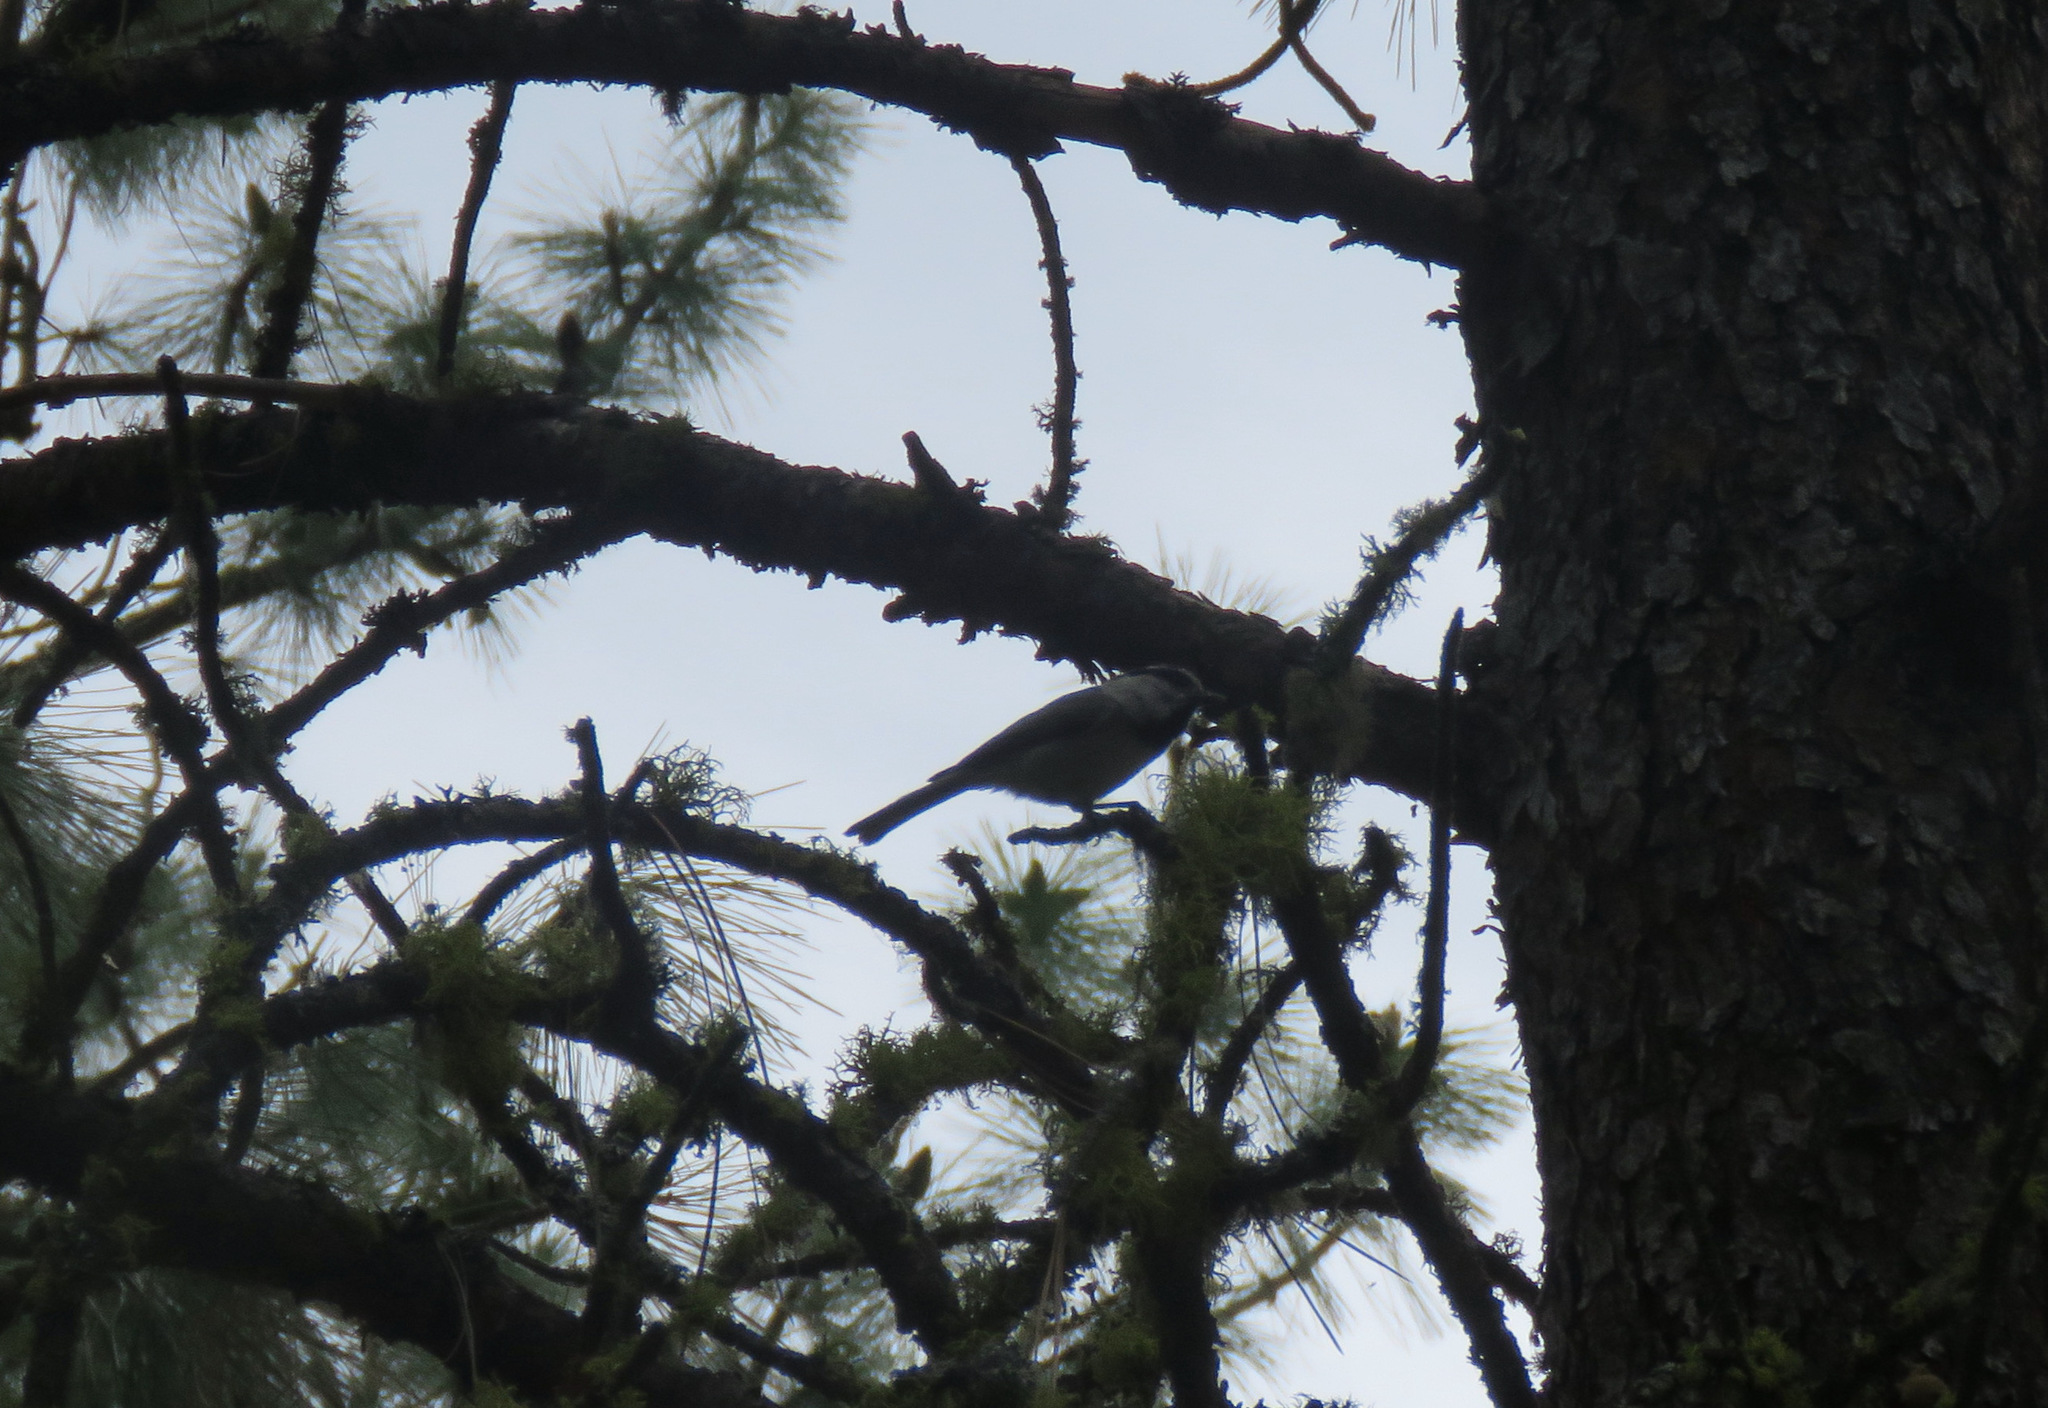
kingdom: Animalia
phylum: Chordata
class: Aves
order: Passeriformes
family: Paridae
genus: Poecile
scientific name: Poecile gambeli
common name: Mountain chickadee
